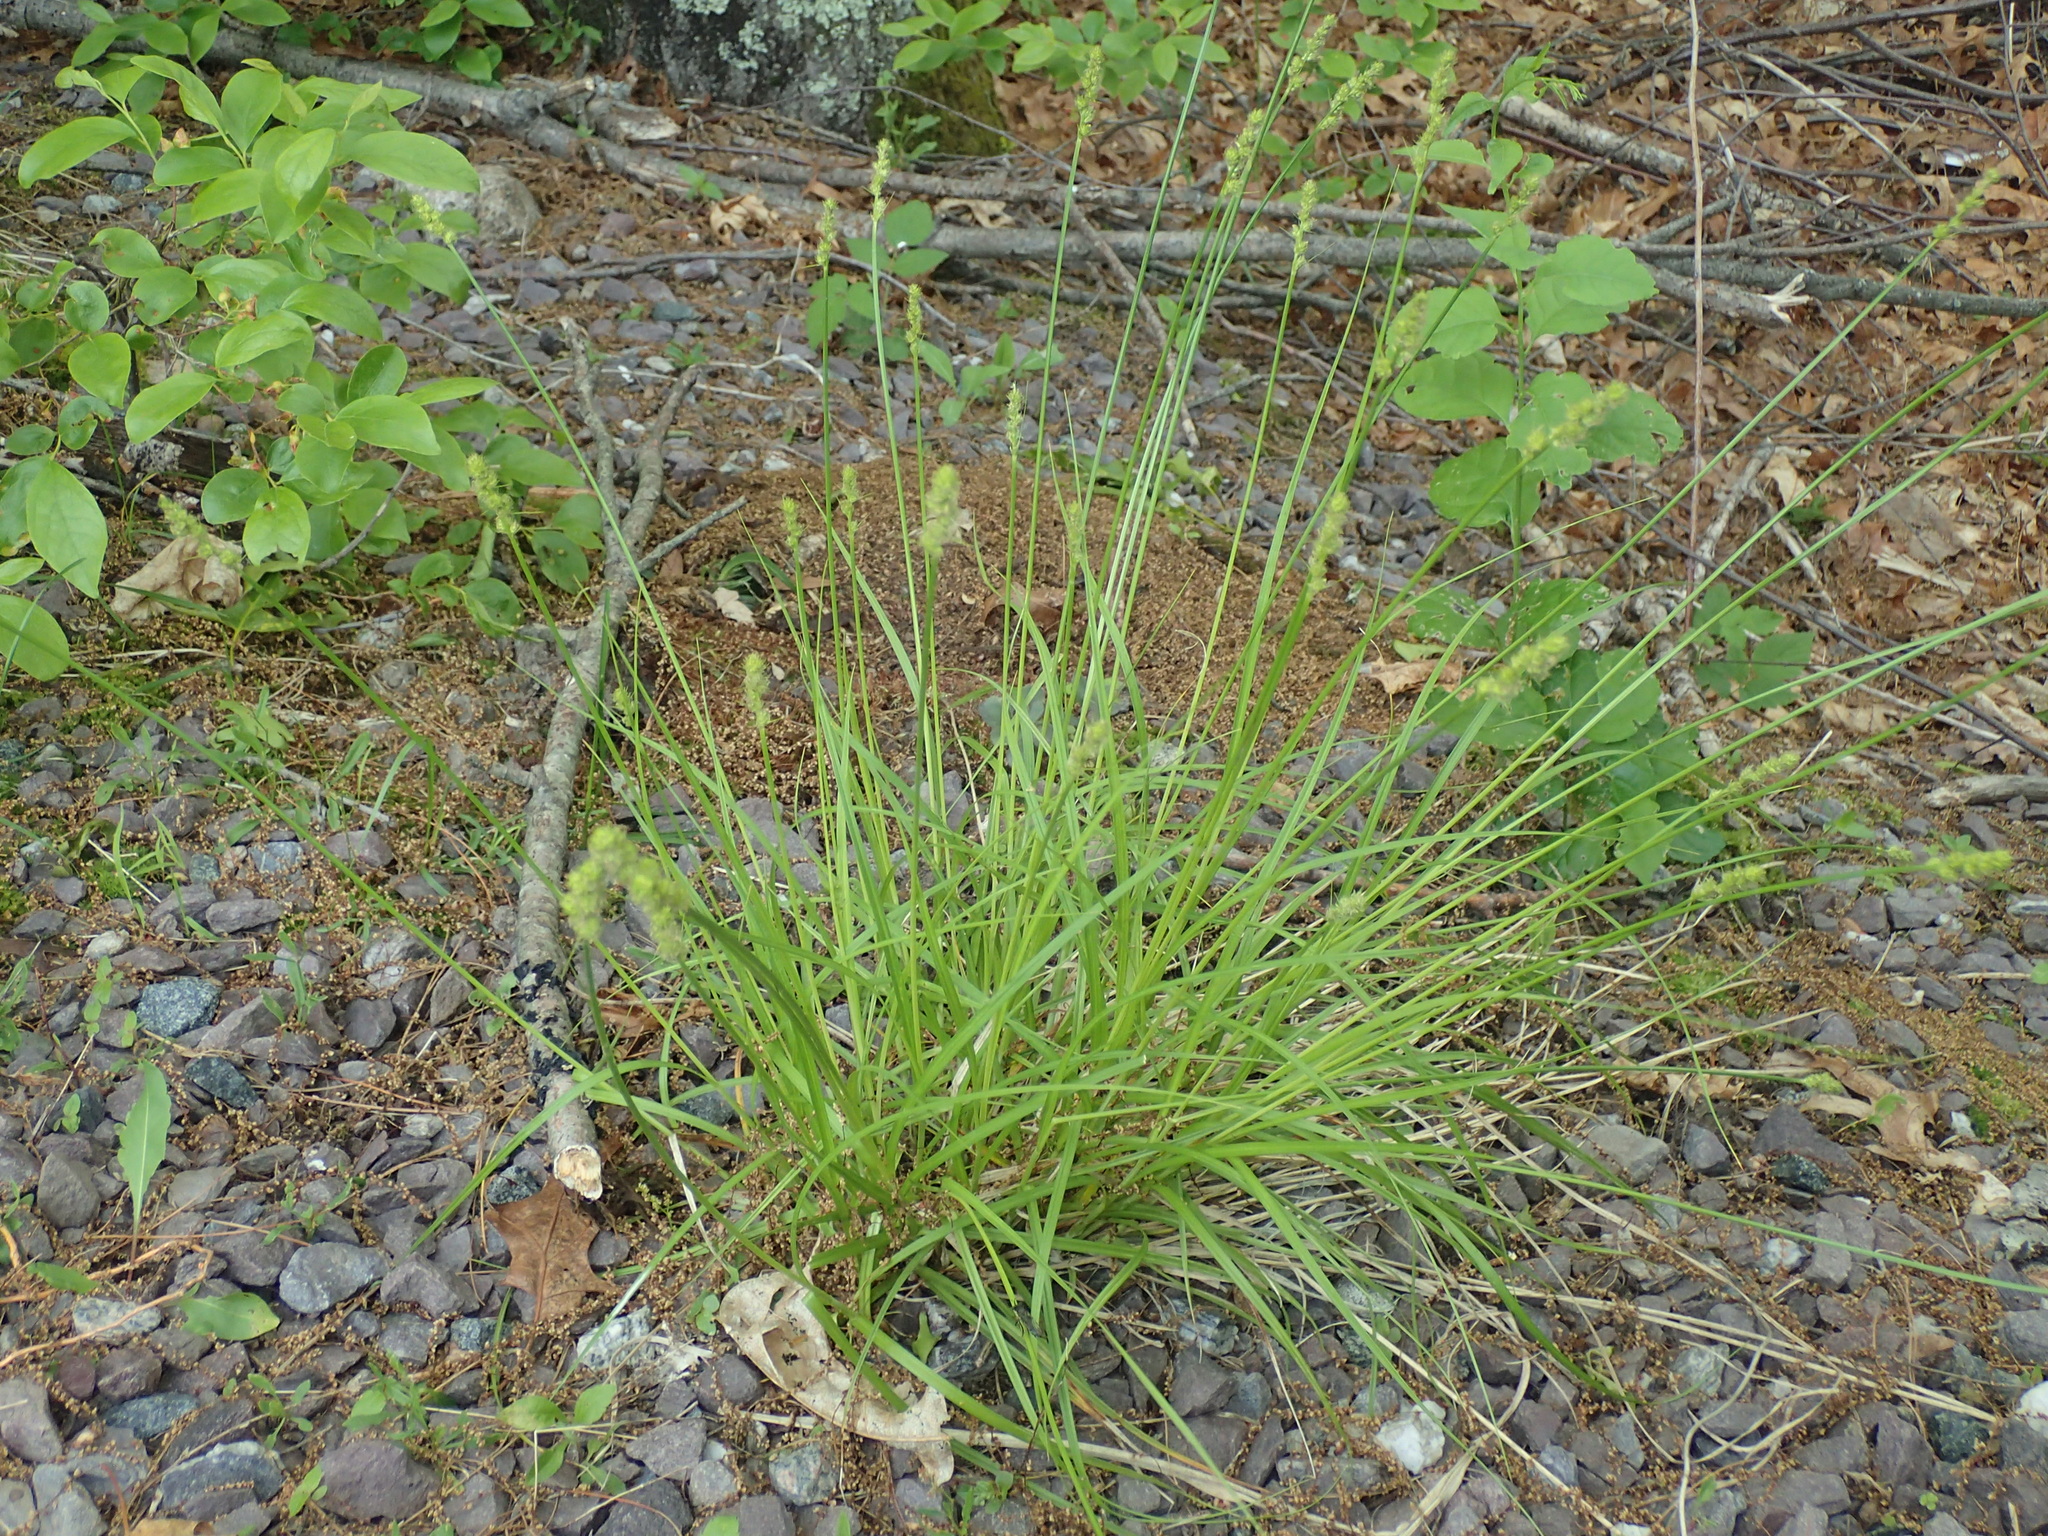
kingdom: Plantae
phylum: Tracheophyta
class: Liliopsida
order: Poales
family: Cyperaceae
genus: Carex
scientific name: Carex annectens
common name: Large fox sedge
